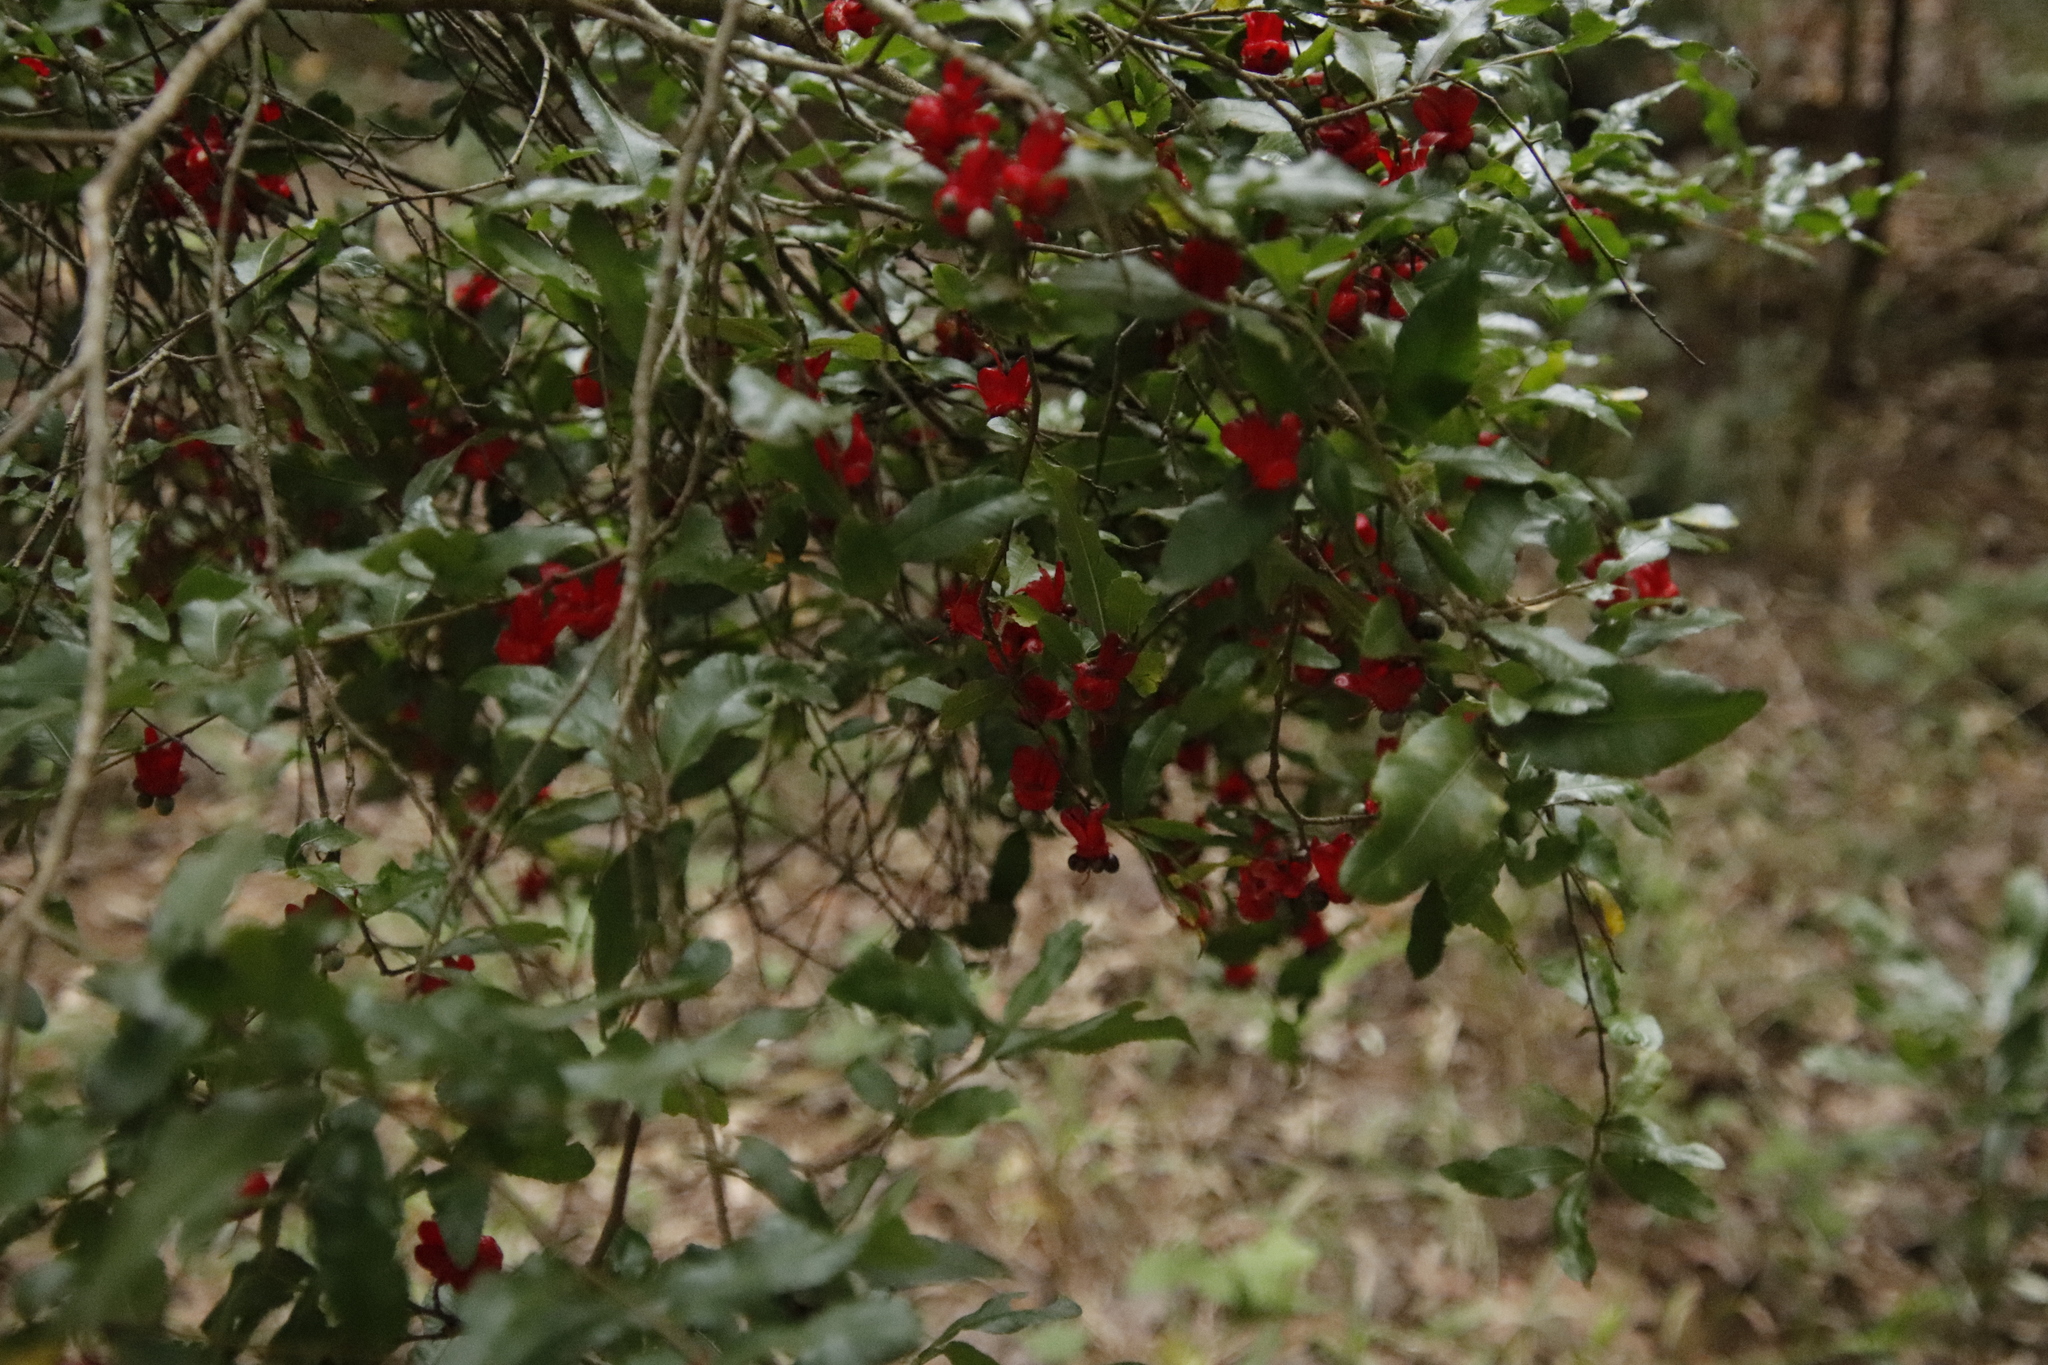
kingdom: Plantae
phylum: Tracheophyta
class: Magnoliopsida
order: Malpighiales
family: Ochnaceae
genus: Ochna
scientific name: Ochna serrulata
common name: Mickey mouse plant
